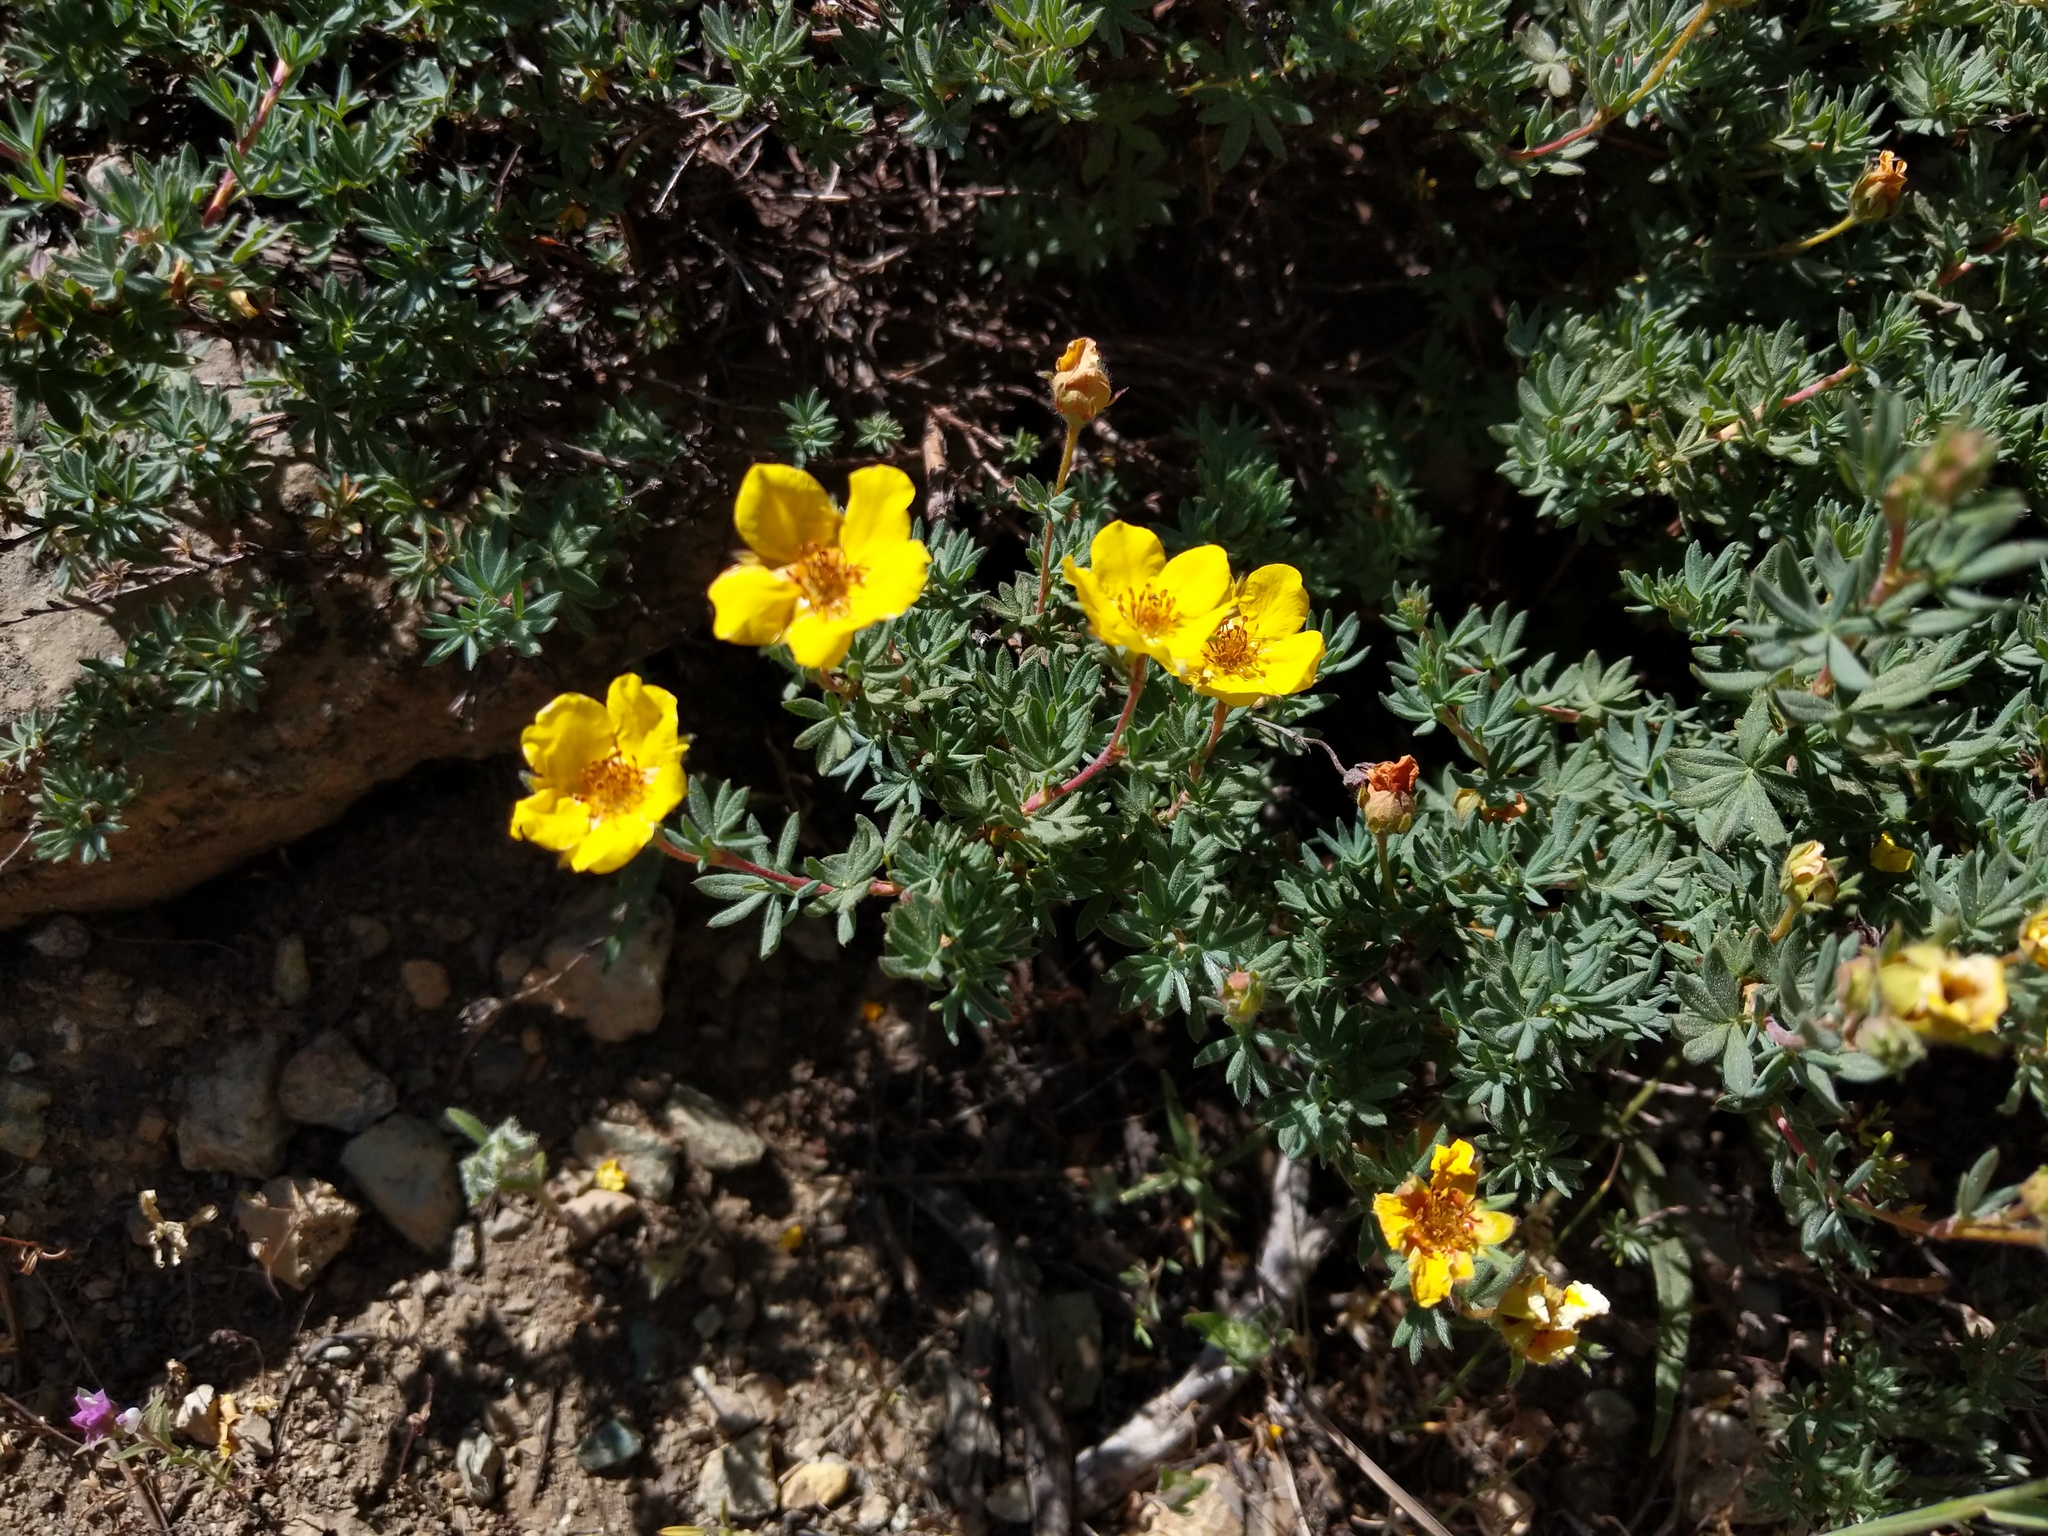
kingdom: Plantae
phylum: Tracheophyta
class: Magnoliopsida
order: Rosales
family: Rosaceae
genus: Dasiphora
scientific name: Dasiphora fruticosa
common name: Shrubby cinquefoil
